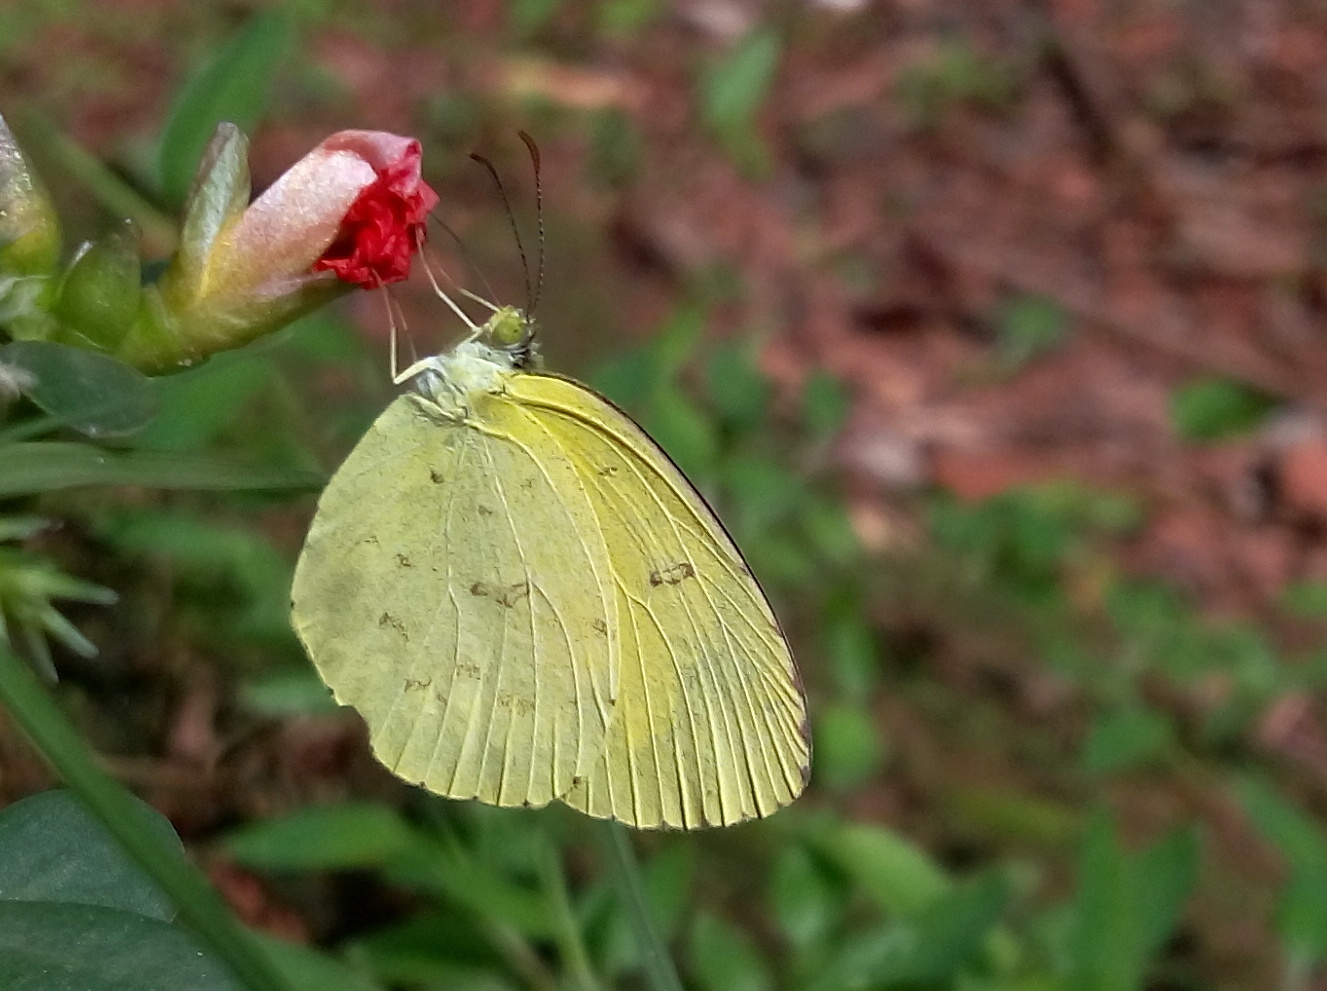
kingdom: Animalia
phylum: Arthropoda
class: Insecta
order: Lepidoptera
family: Pieridae
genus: Eurema
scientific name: Eurema hecabe
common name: Pale grass yellow
